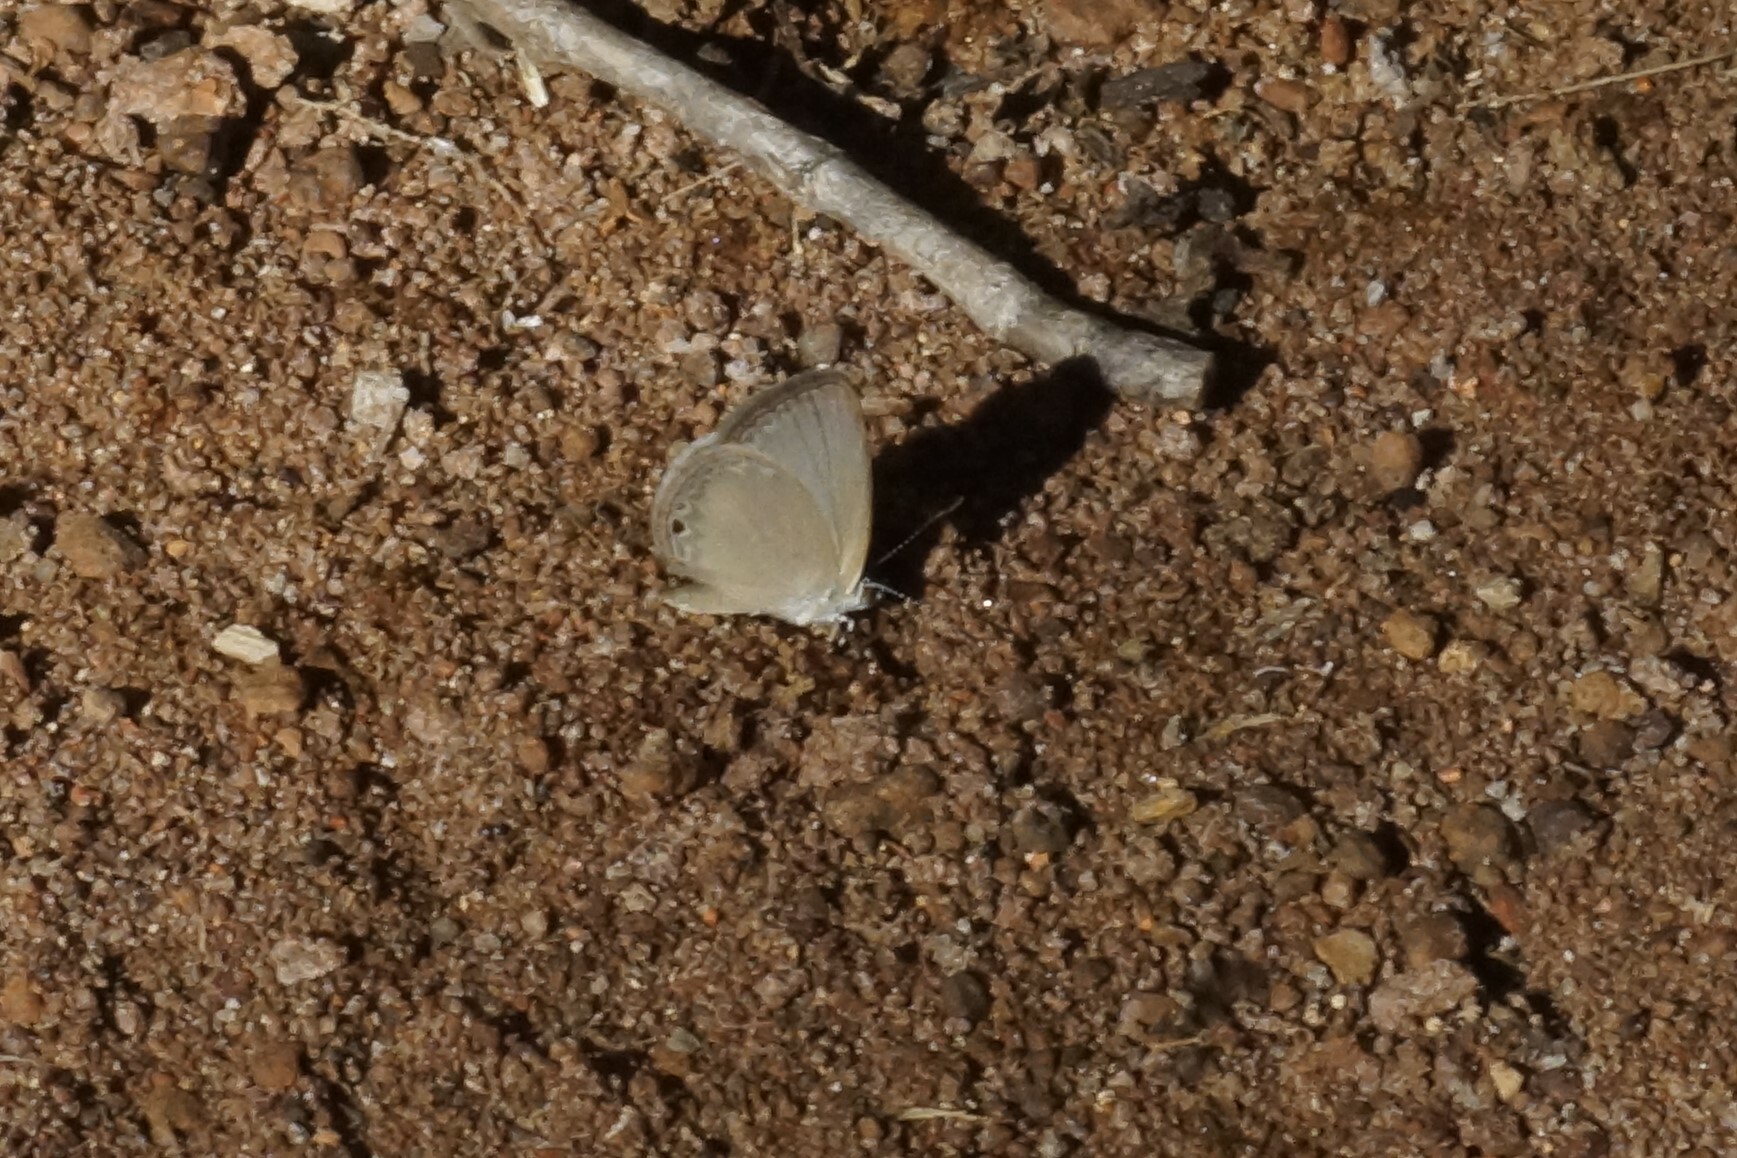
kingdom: Animalia
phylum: Arthropoda
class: Insecta
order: Lepidoptera
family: Lycaenidae
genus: Cupido
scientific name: Cupido nisa
